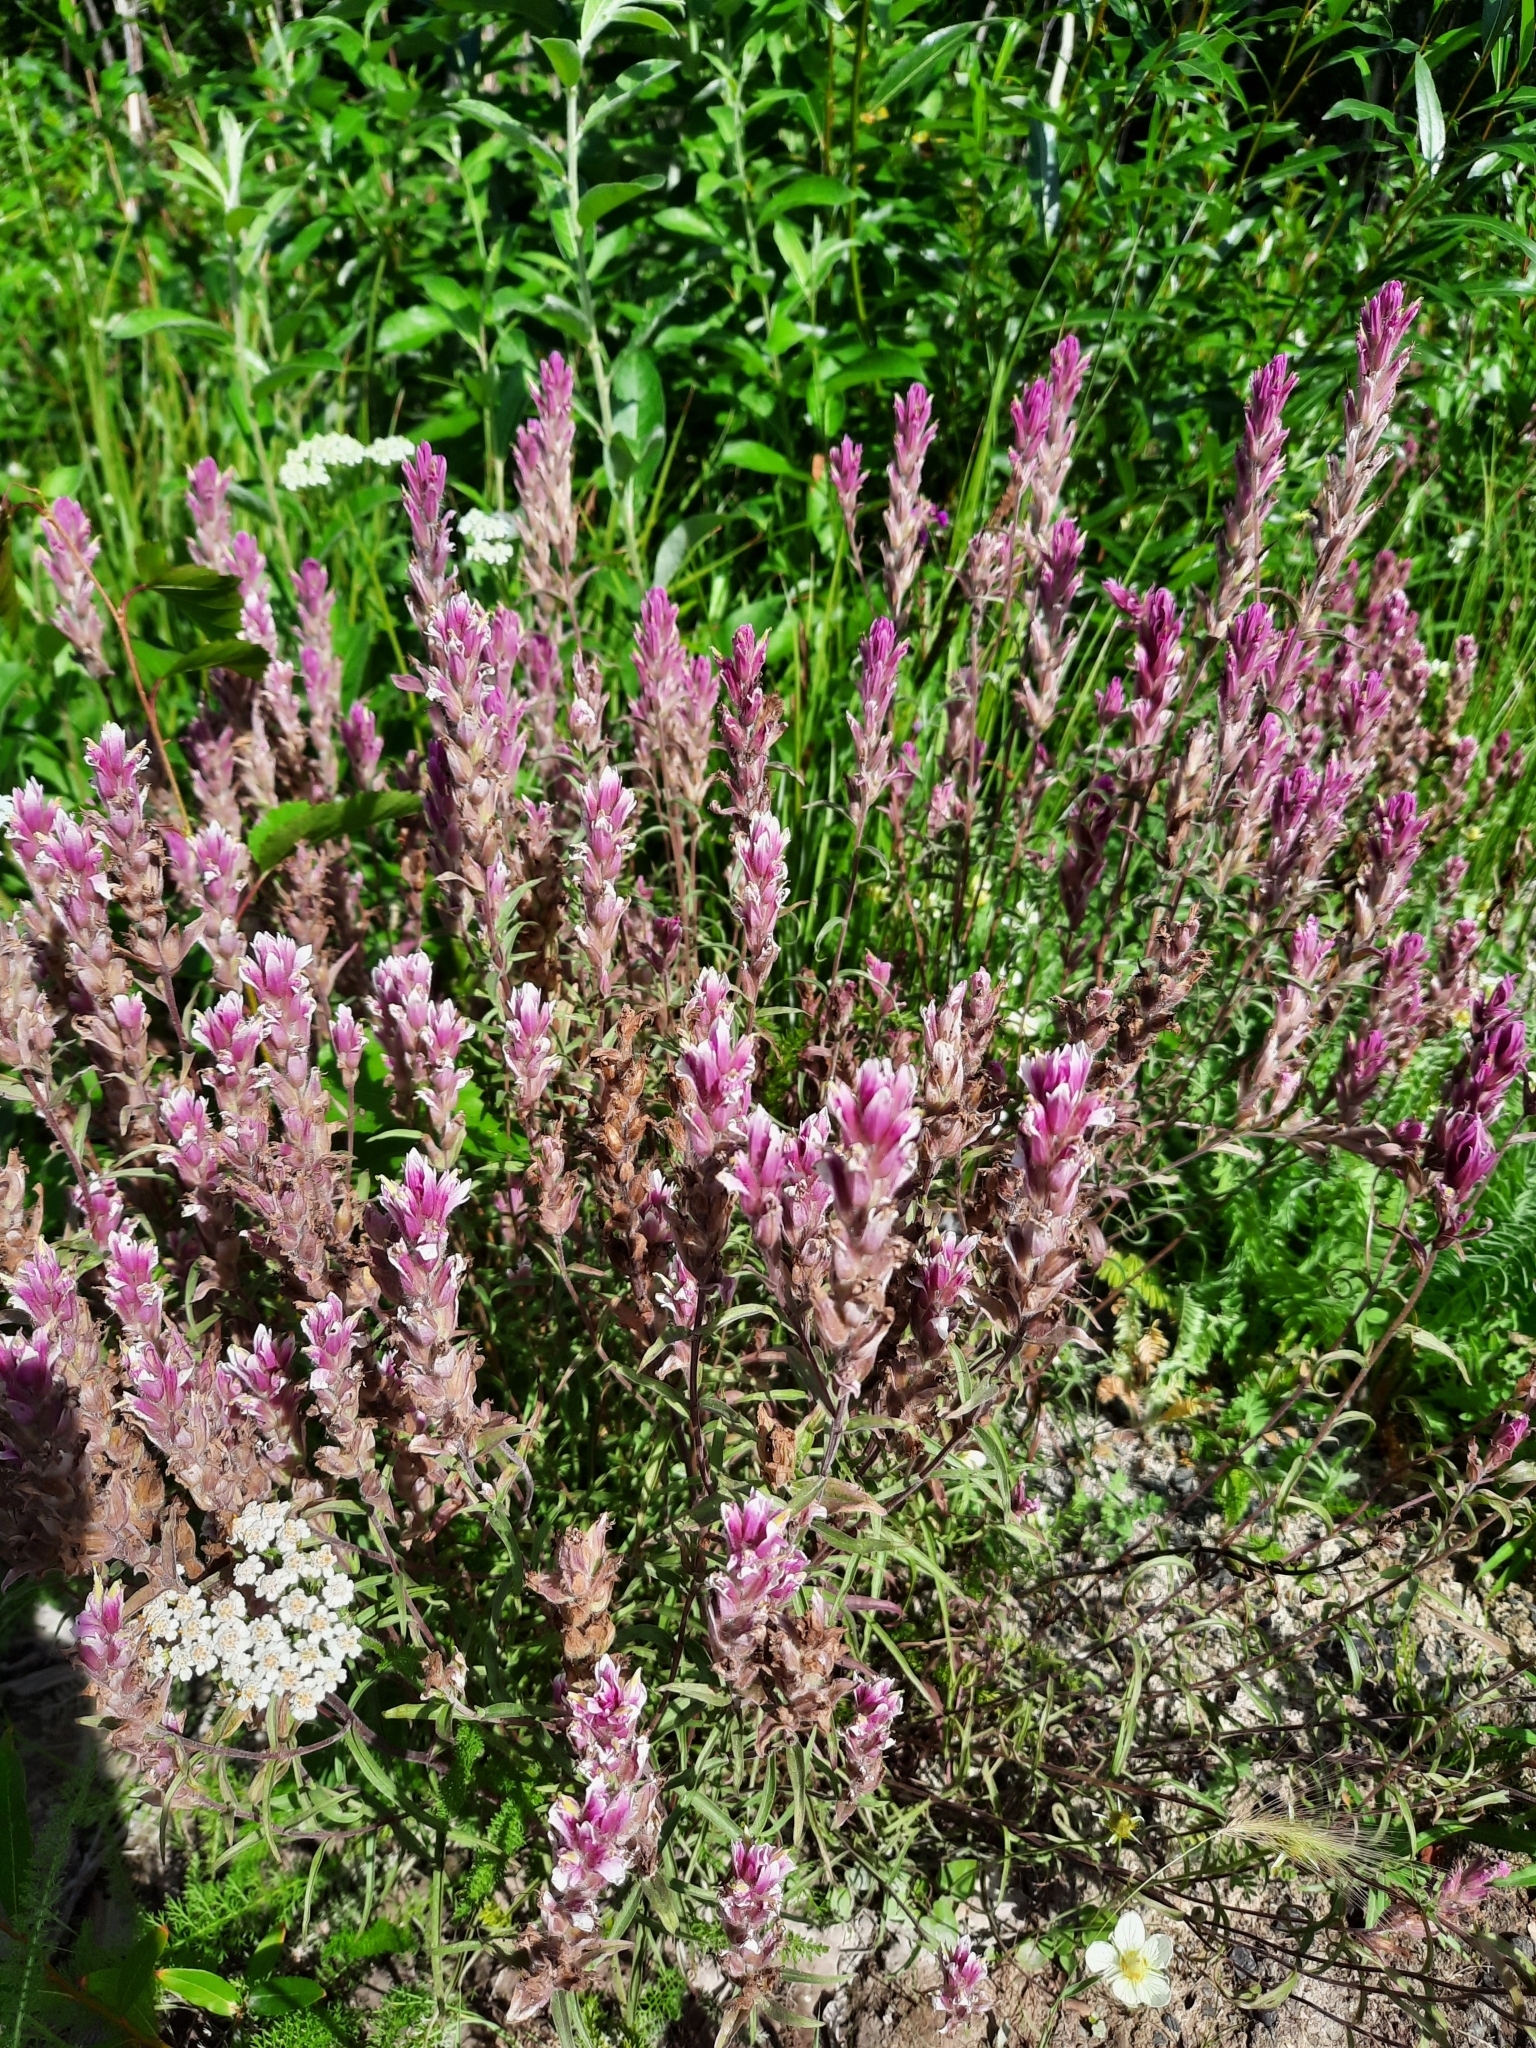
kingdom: Plantae
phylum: Tracheophyta
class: Magnoliopsida
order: Lamiales
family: Orobanchaceae
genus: Castilleja
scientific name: Castilleja raupii
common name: Raup's paintbrush
